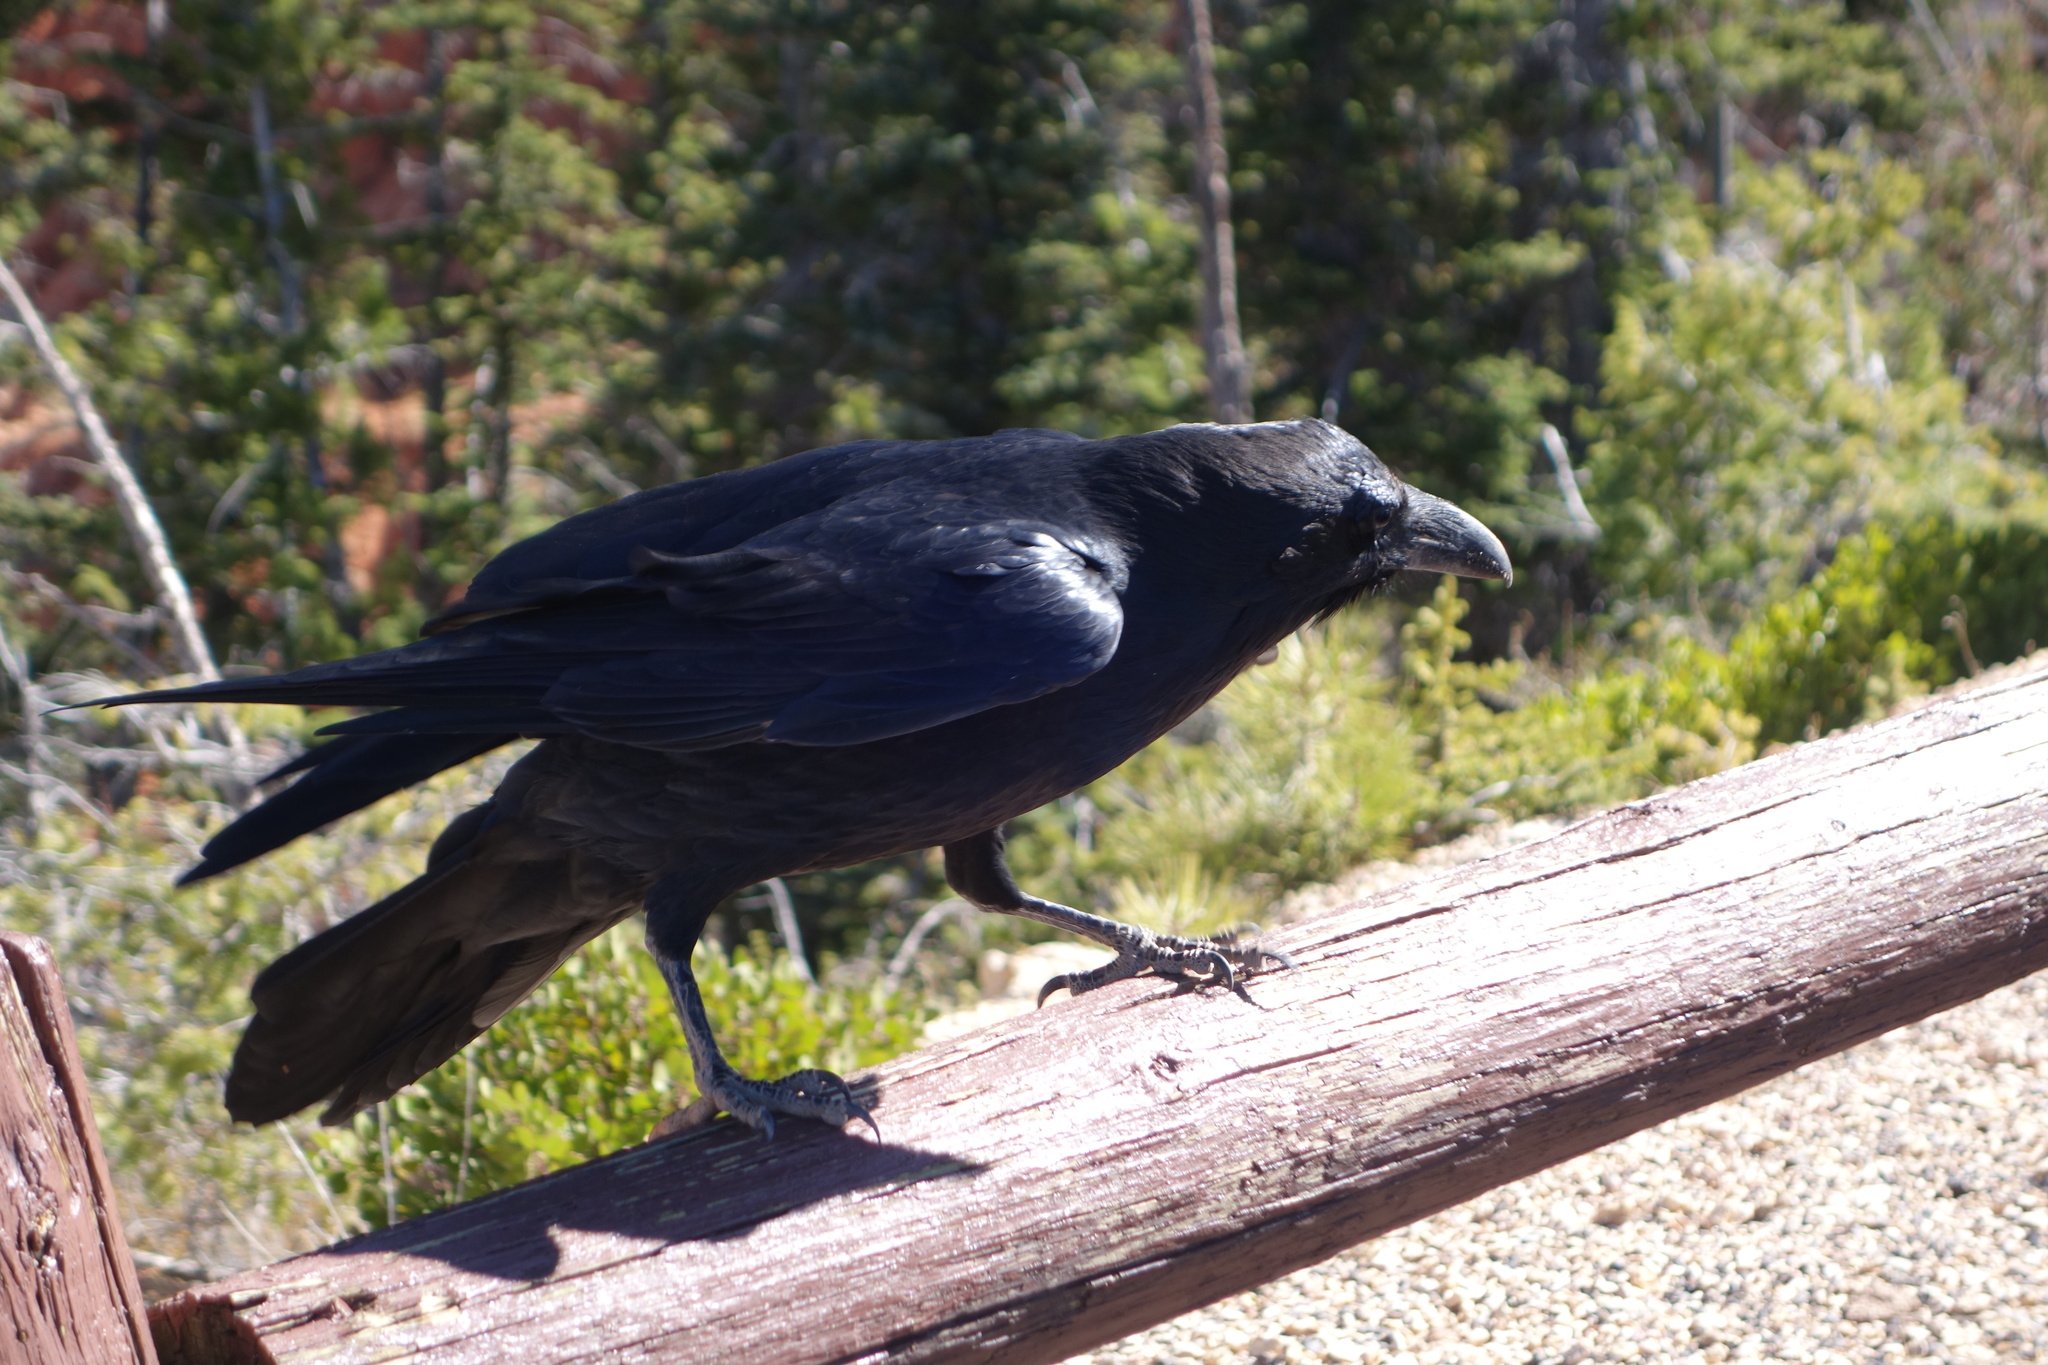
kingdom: Animalia
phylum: Chordata
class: Aves
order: Passeriformes
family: Corvidae
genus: Corvus
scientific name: Corvus corax
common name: Common raven
